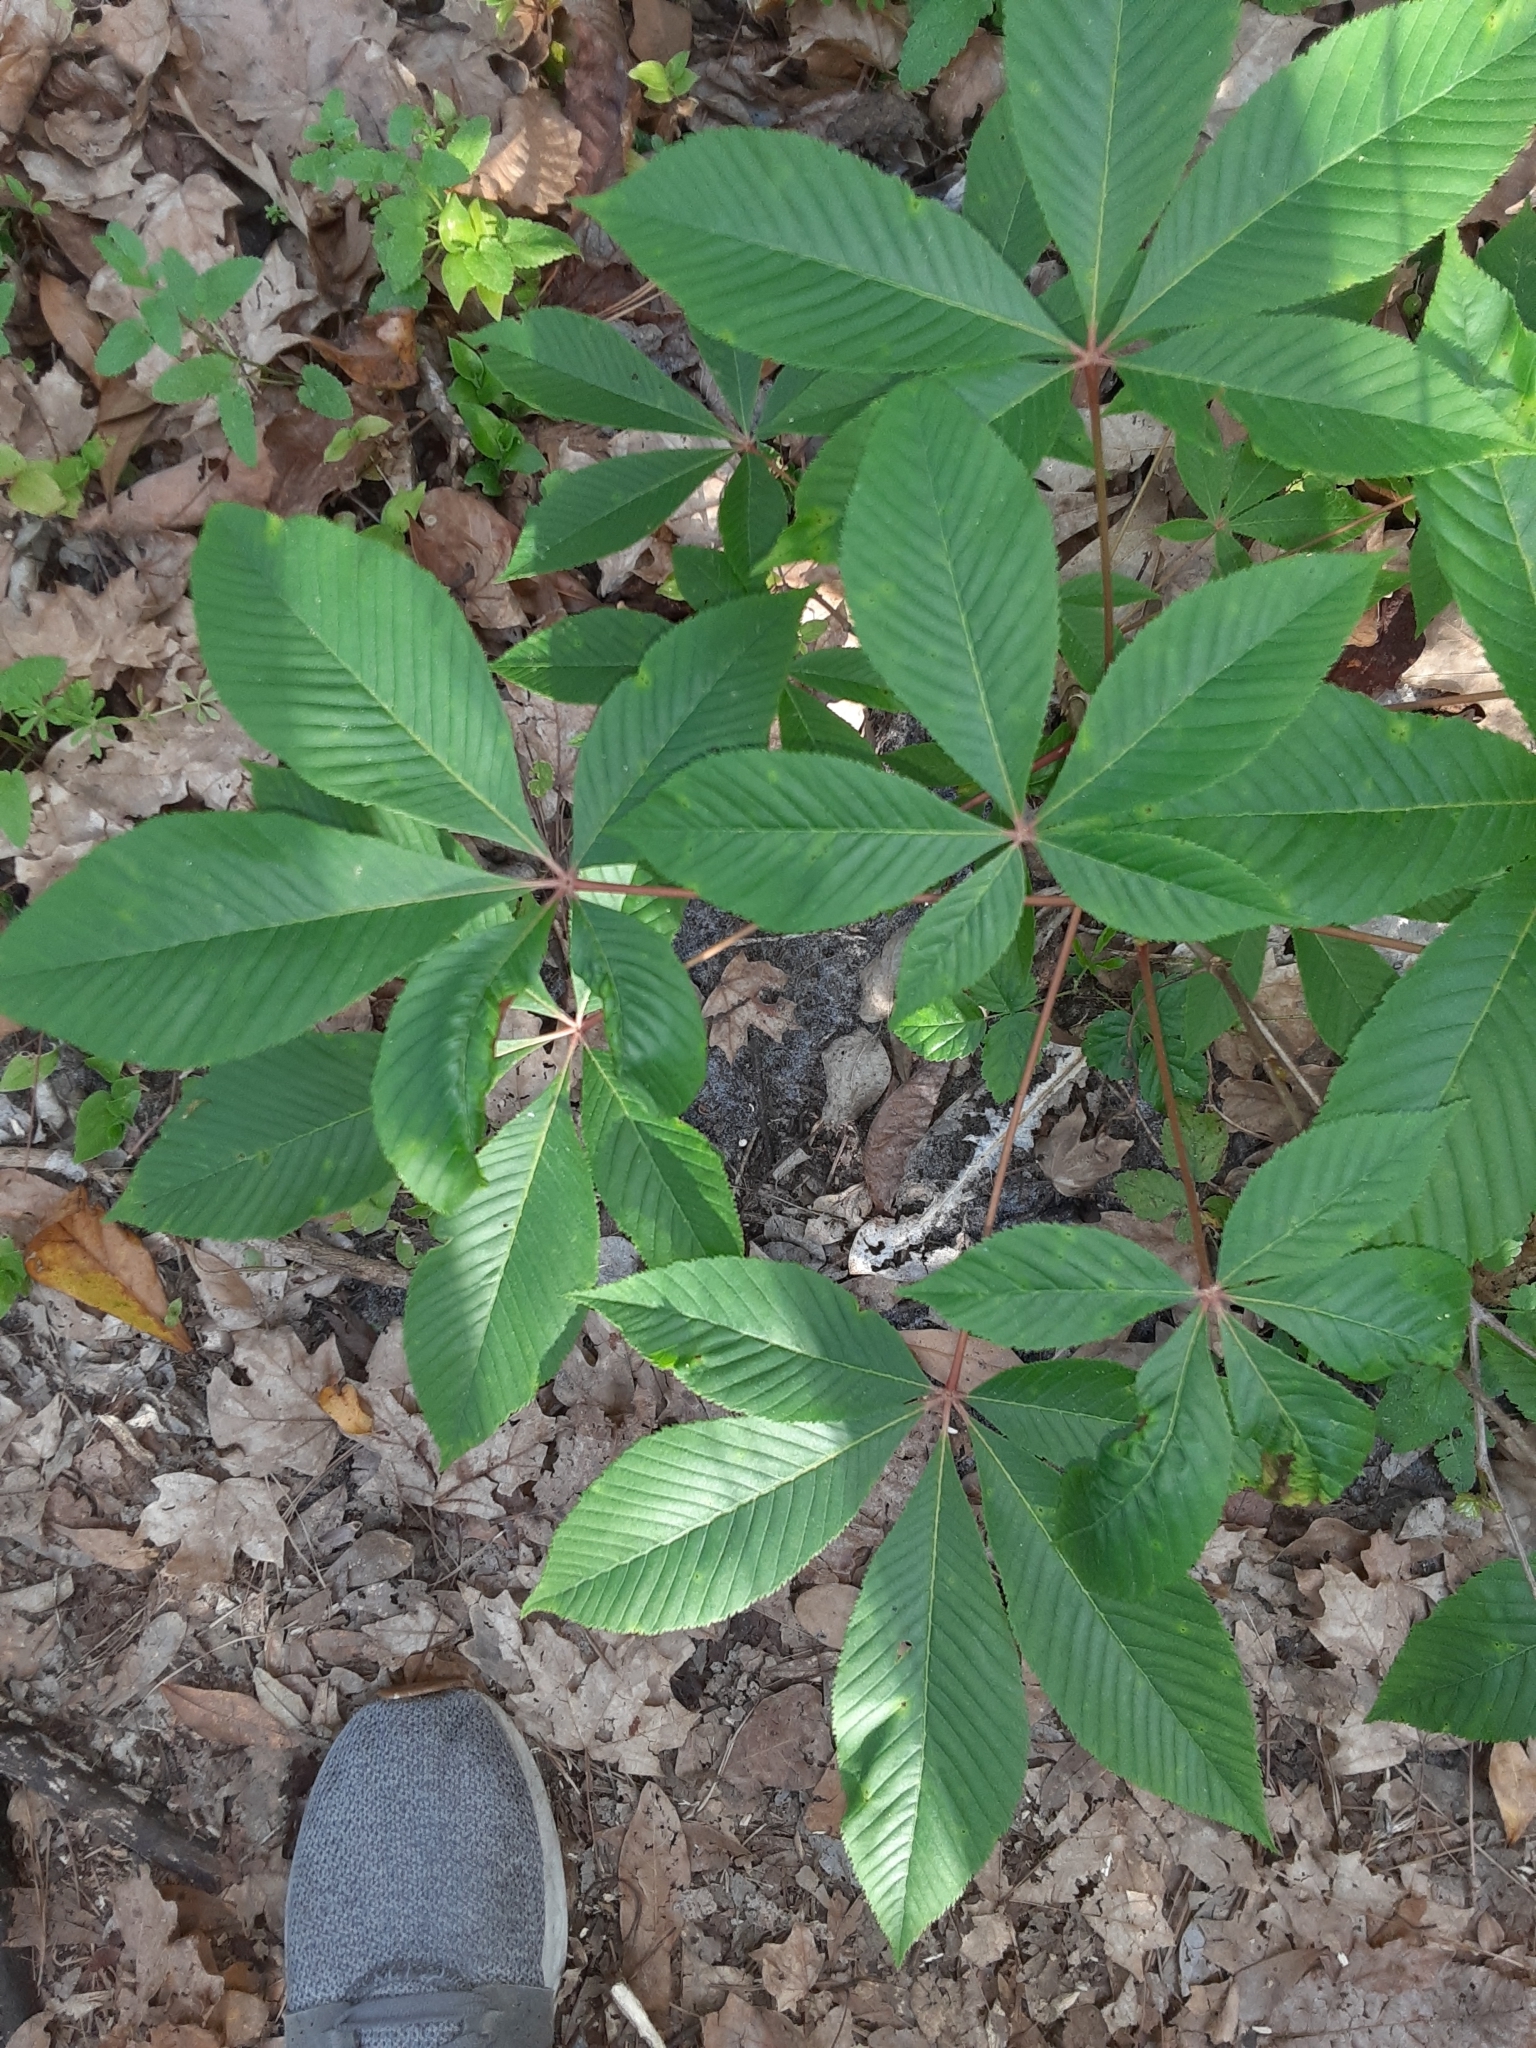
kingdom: Plantae
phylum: Tracheophyta
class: Magnoliopsida
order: Sapindales
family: Sapindaceae
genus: Aesculus
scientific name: Aesculus pavia
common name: Red buckeye
